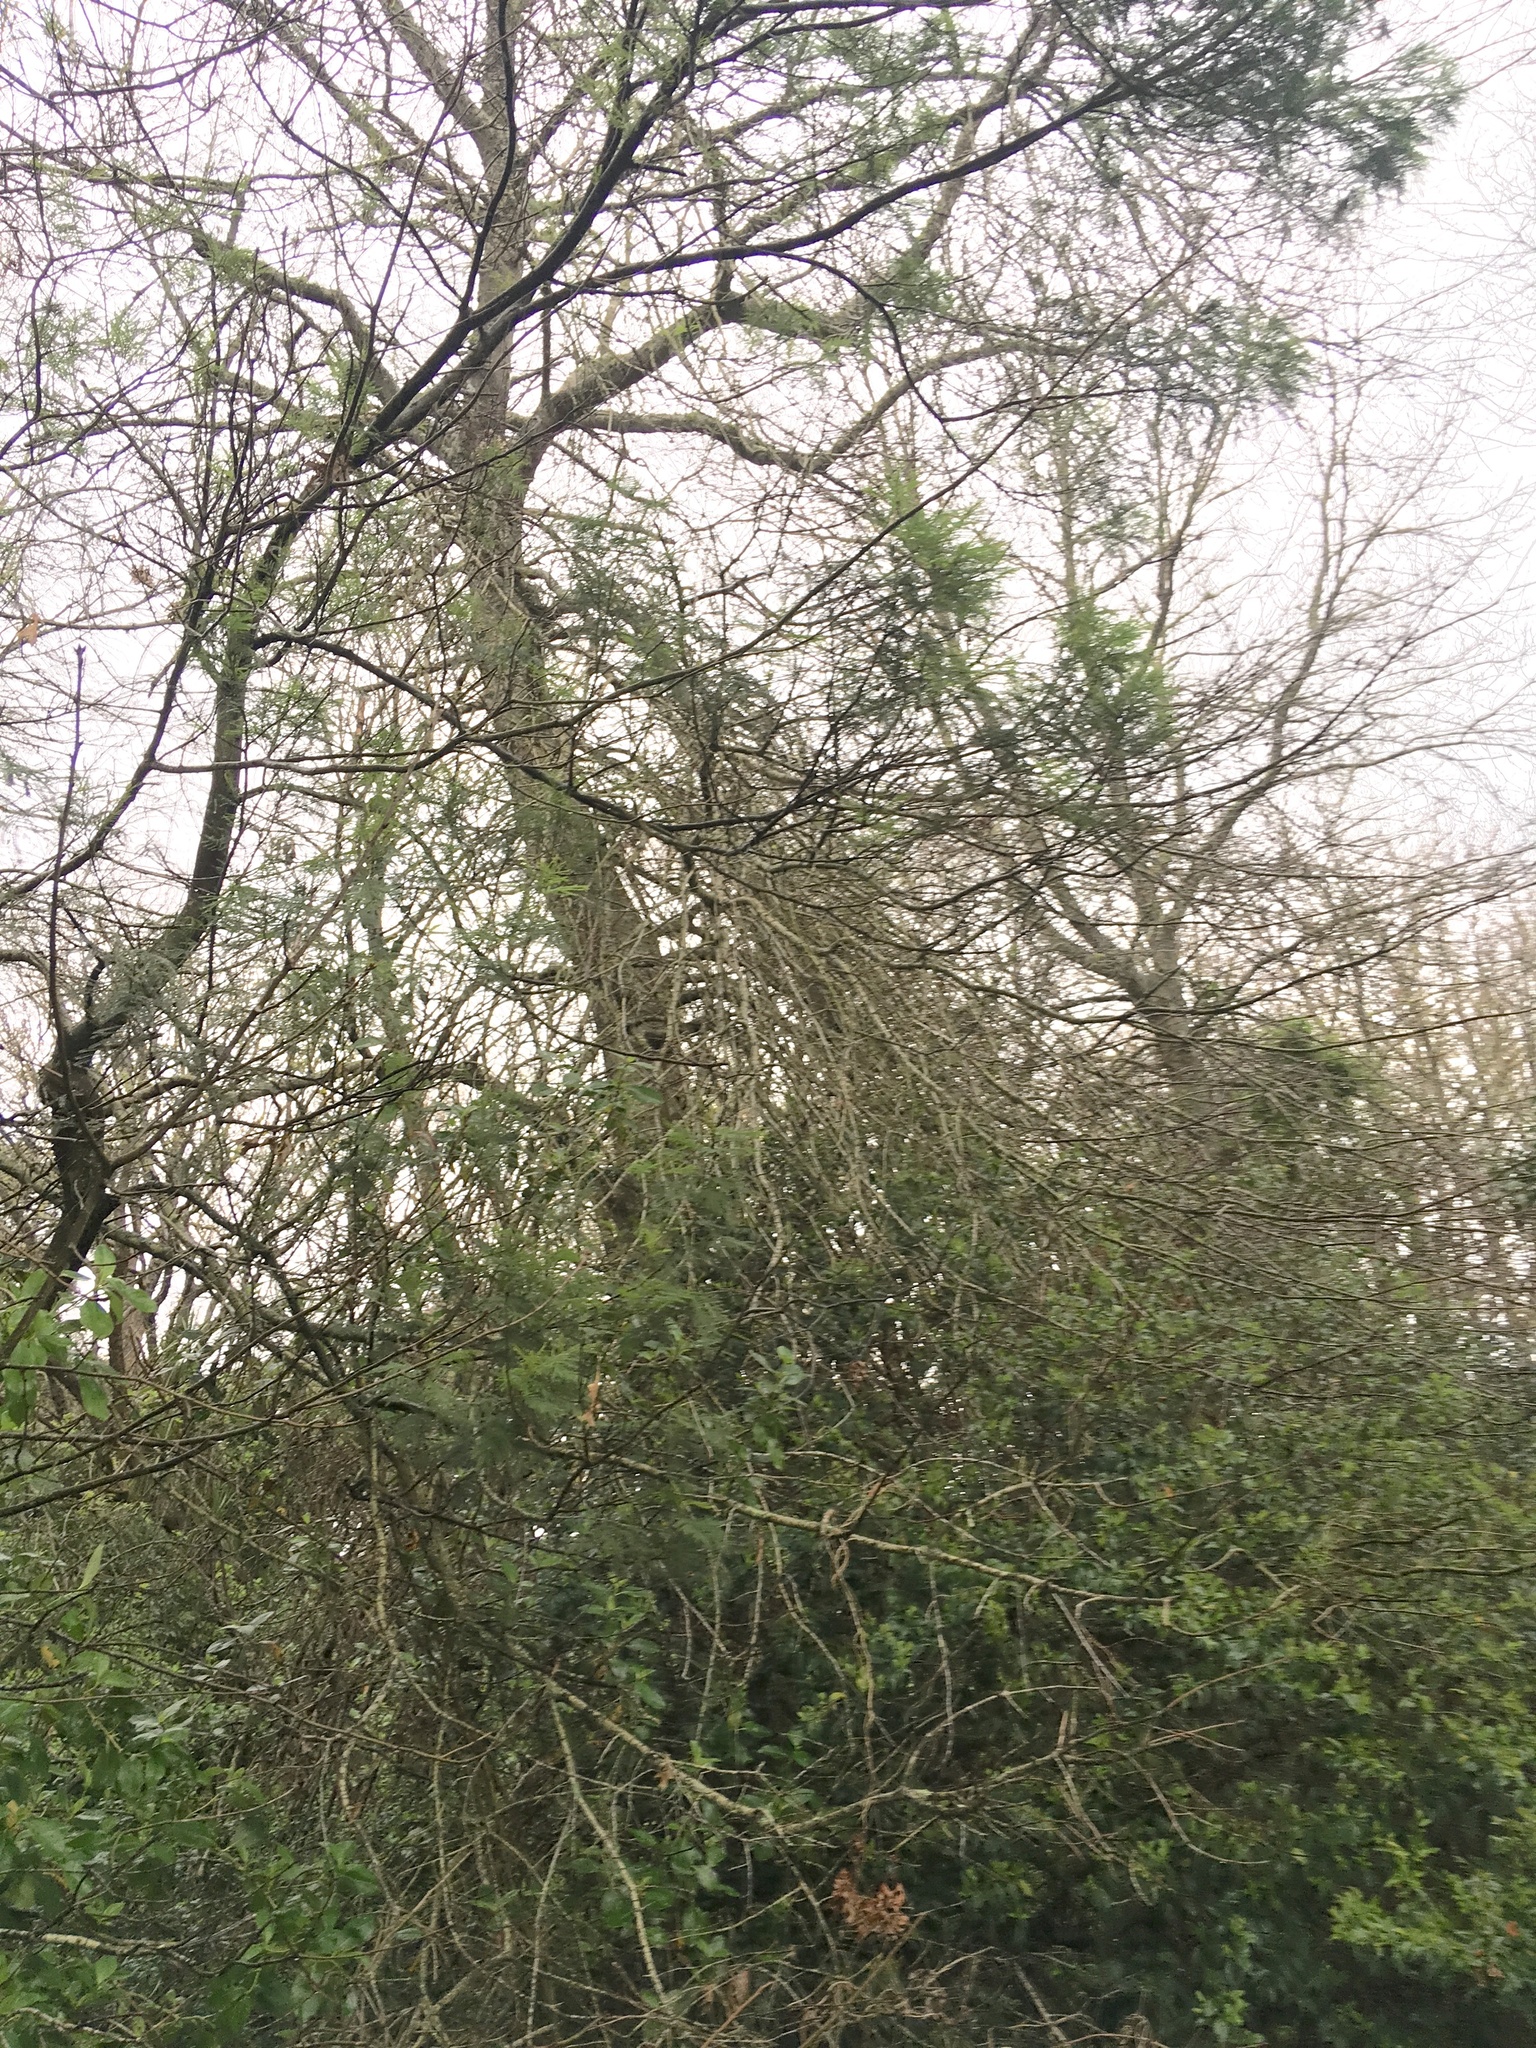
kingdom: Plantae
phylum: Tracheophyta
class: Magnoliopsida
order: Fabales
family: Fabaceae
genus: Acacia
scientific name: Acacia mearnsii
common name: Black wattle
